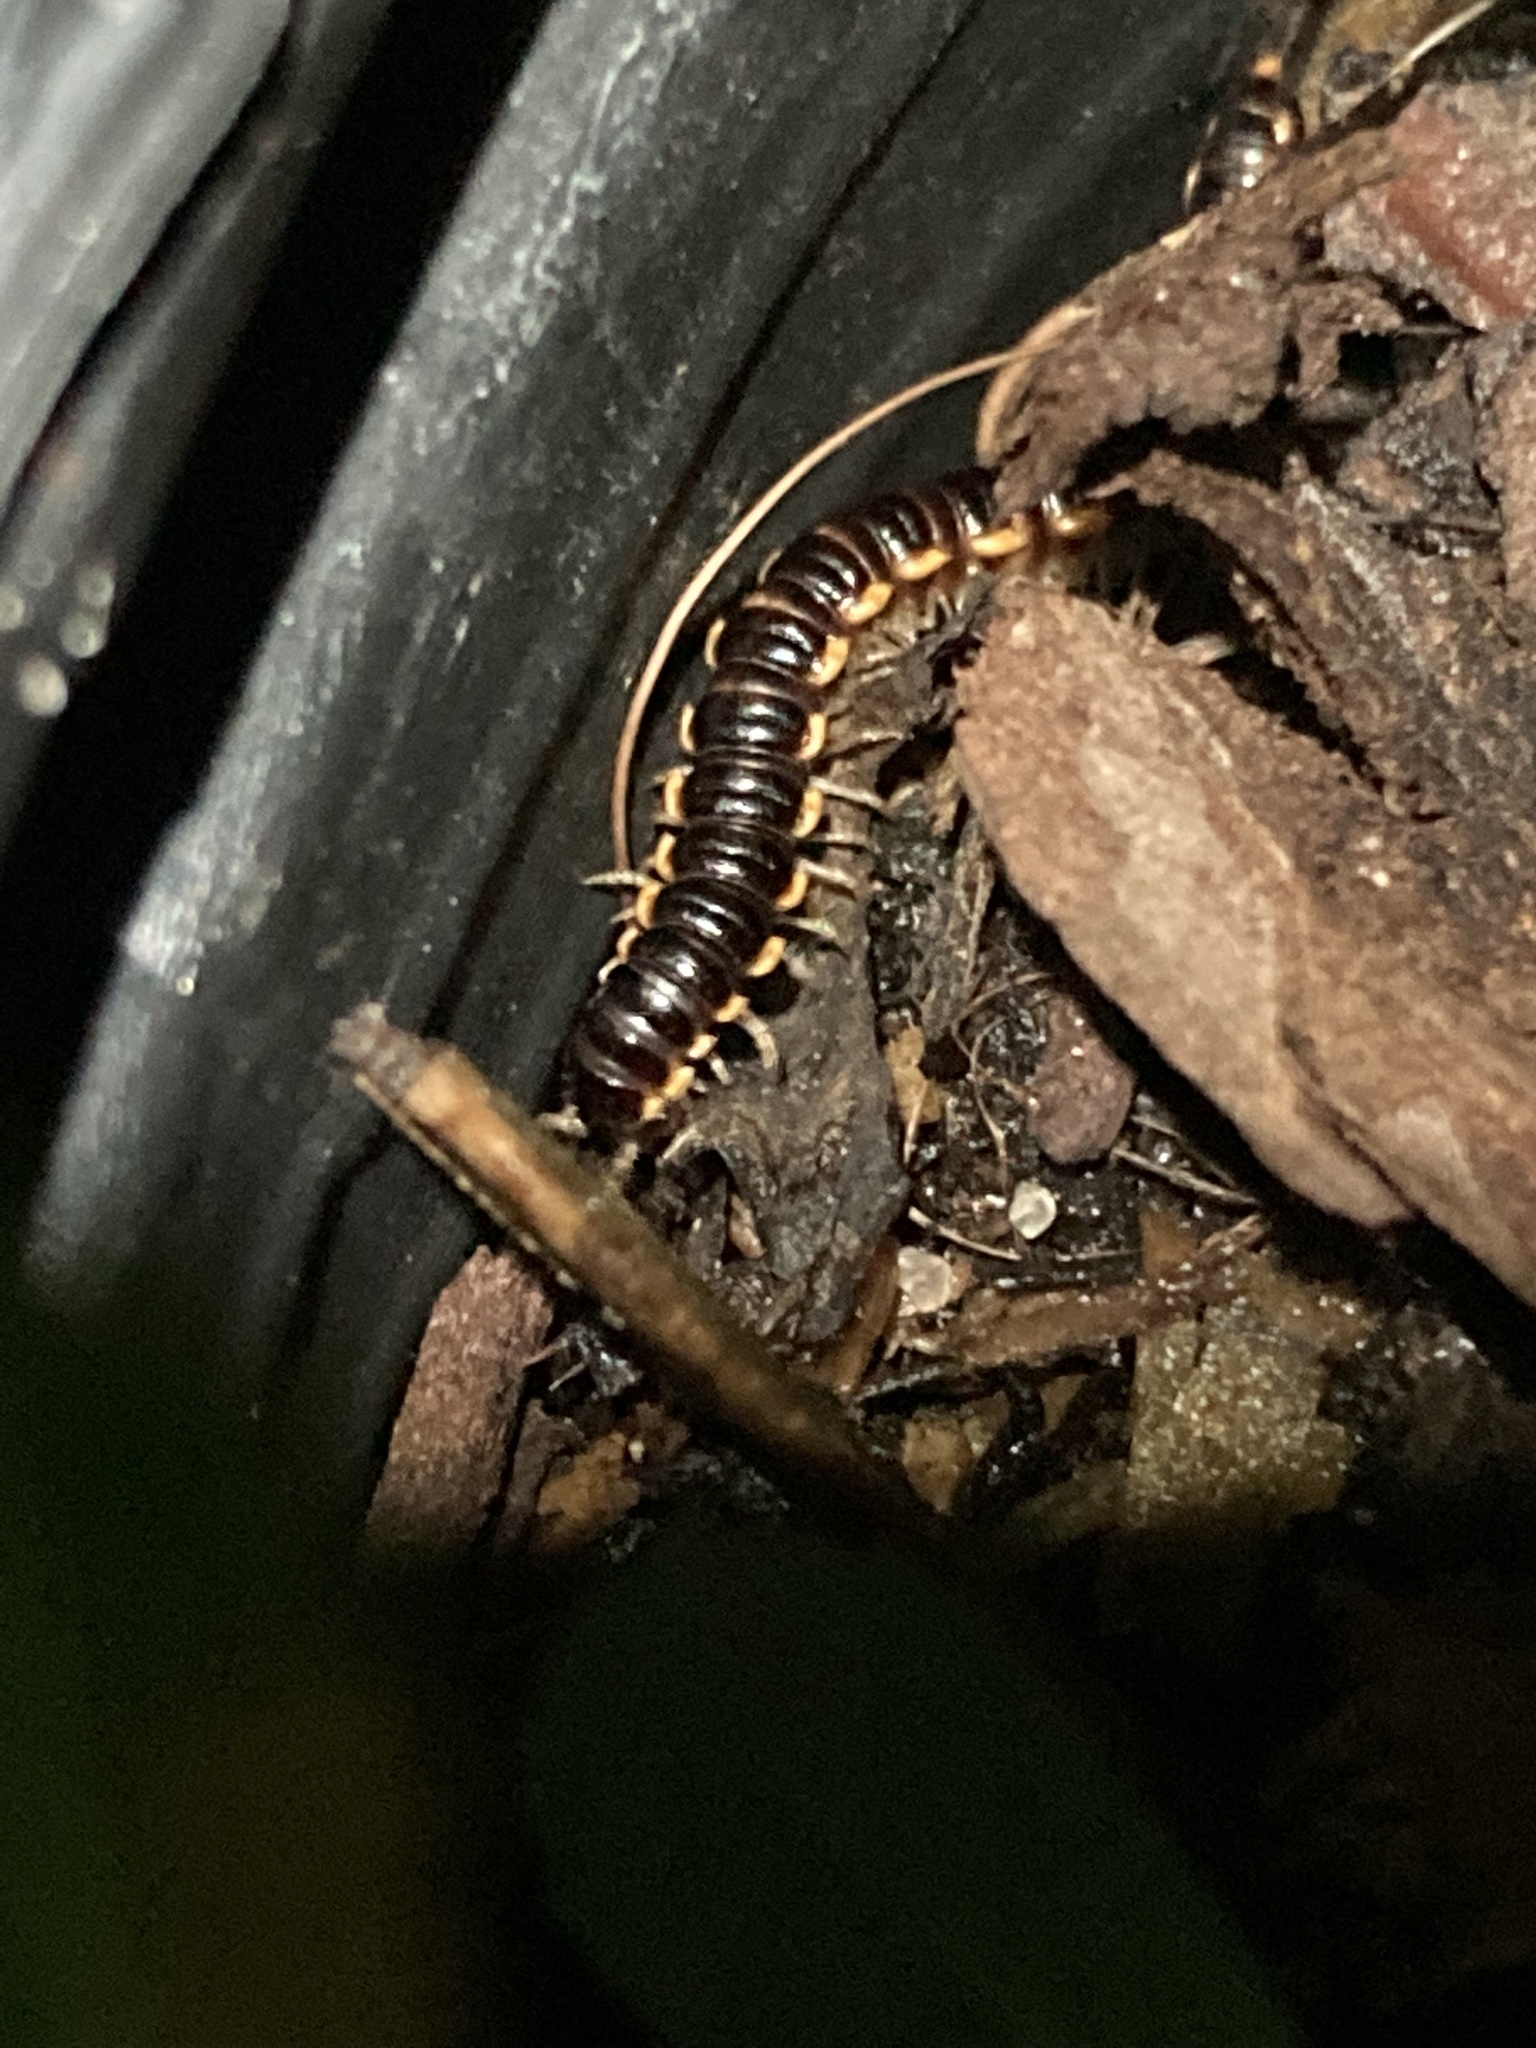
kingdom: Animalia
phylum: Arthropoda
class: Diplopoda
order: Polydesmida
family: Paradoxosomatidae
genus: Orthomorpha
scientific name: Orthomorpha coarctata
